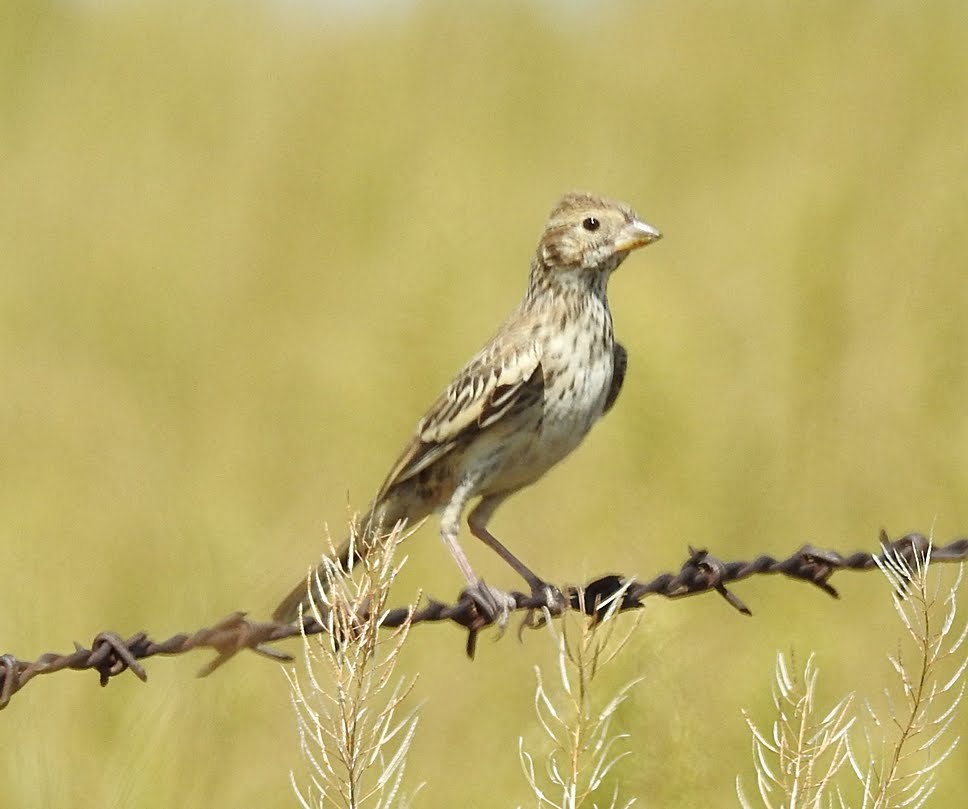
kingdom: Animalia
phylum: Chordata
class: Aves
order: Passeriformes
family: Passerellidae
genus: Calamospiza
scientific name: Calamospiza melanocorys
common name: Lark bunting
